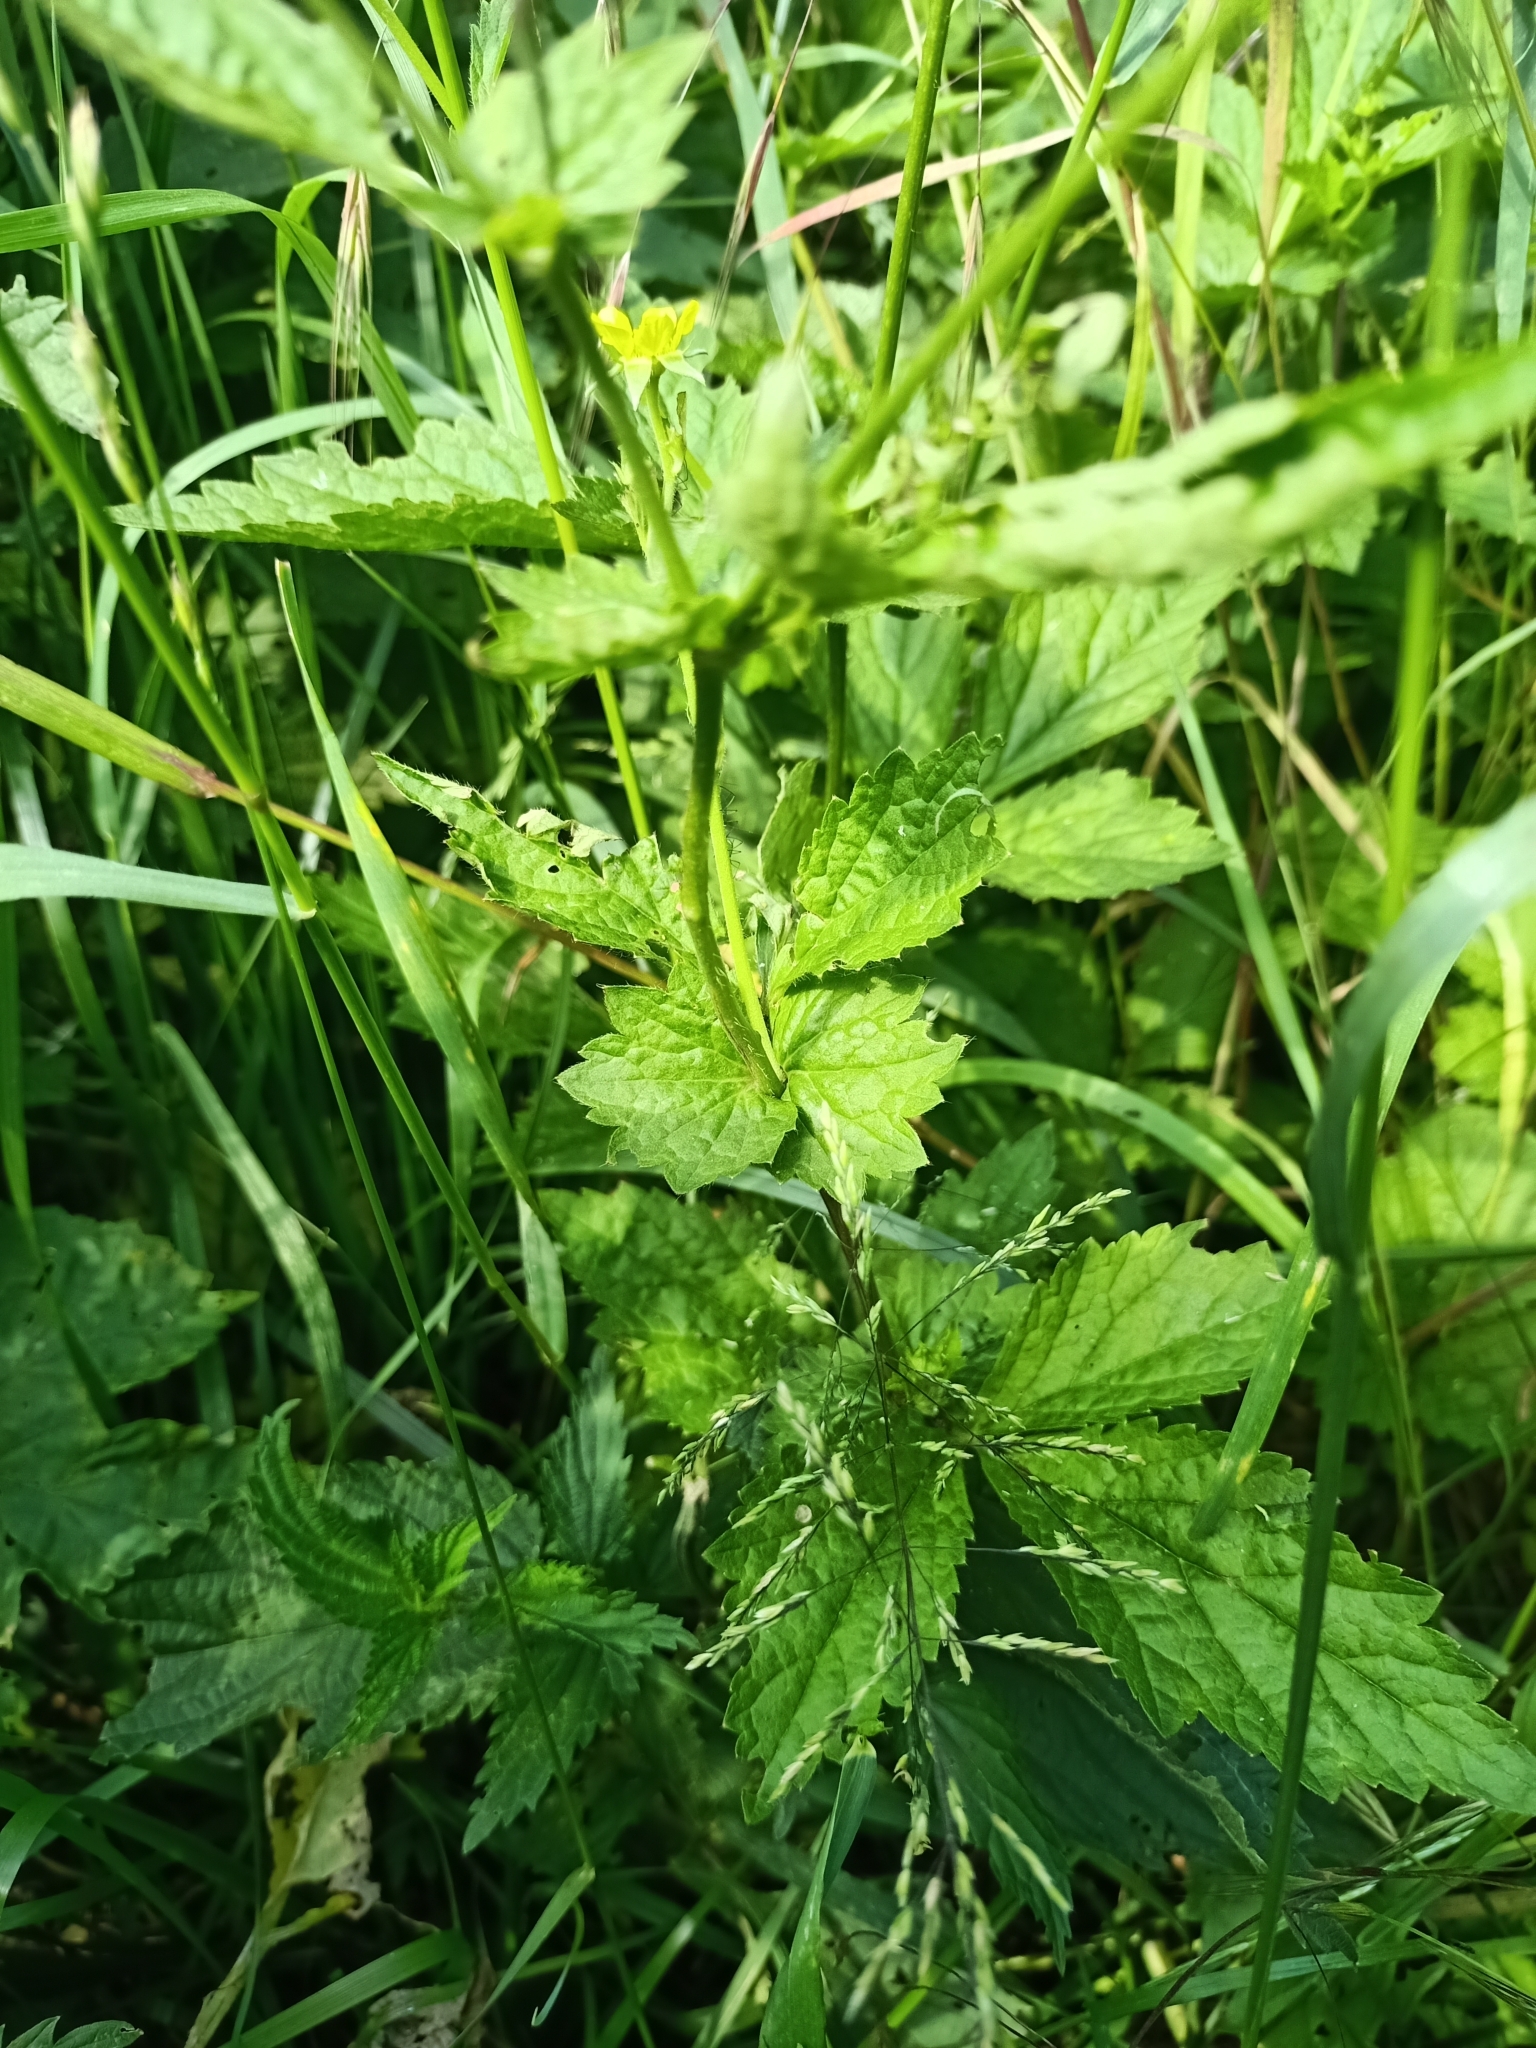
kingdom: Plantae
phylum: Tracheophyta
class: Magnoliopsida
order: Rosales
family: Rosaceae
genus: Geum
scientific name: Geum urbanum
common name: Wood avens
